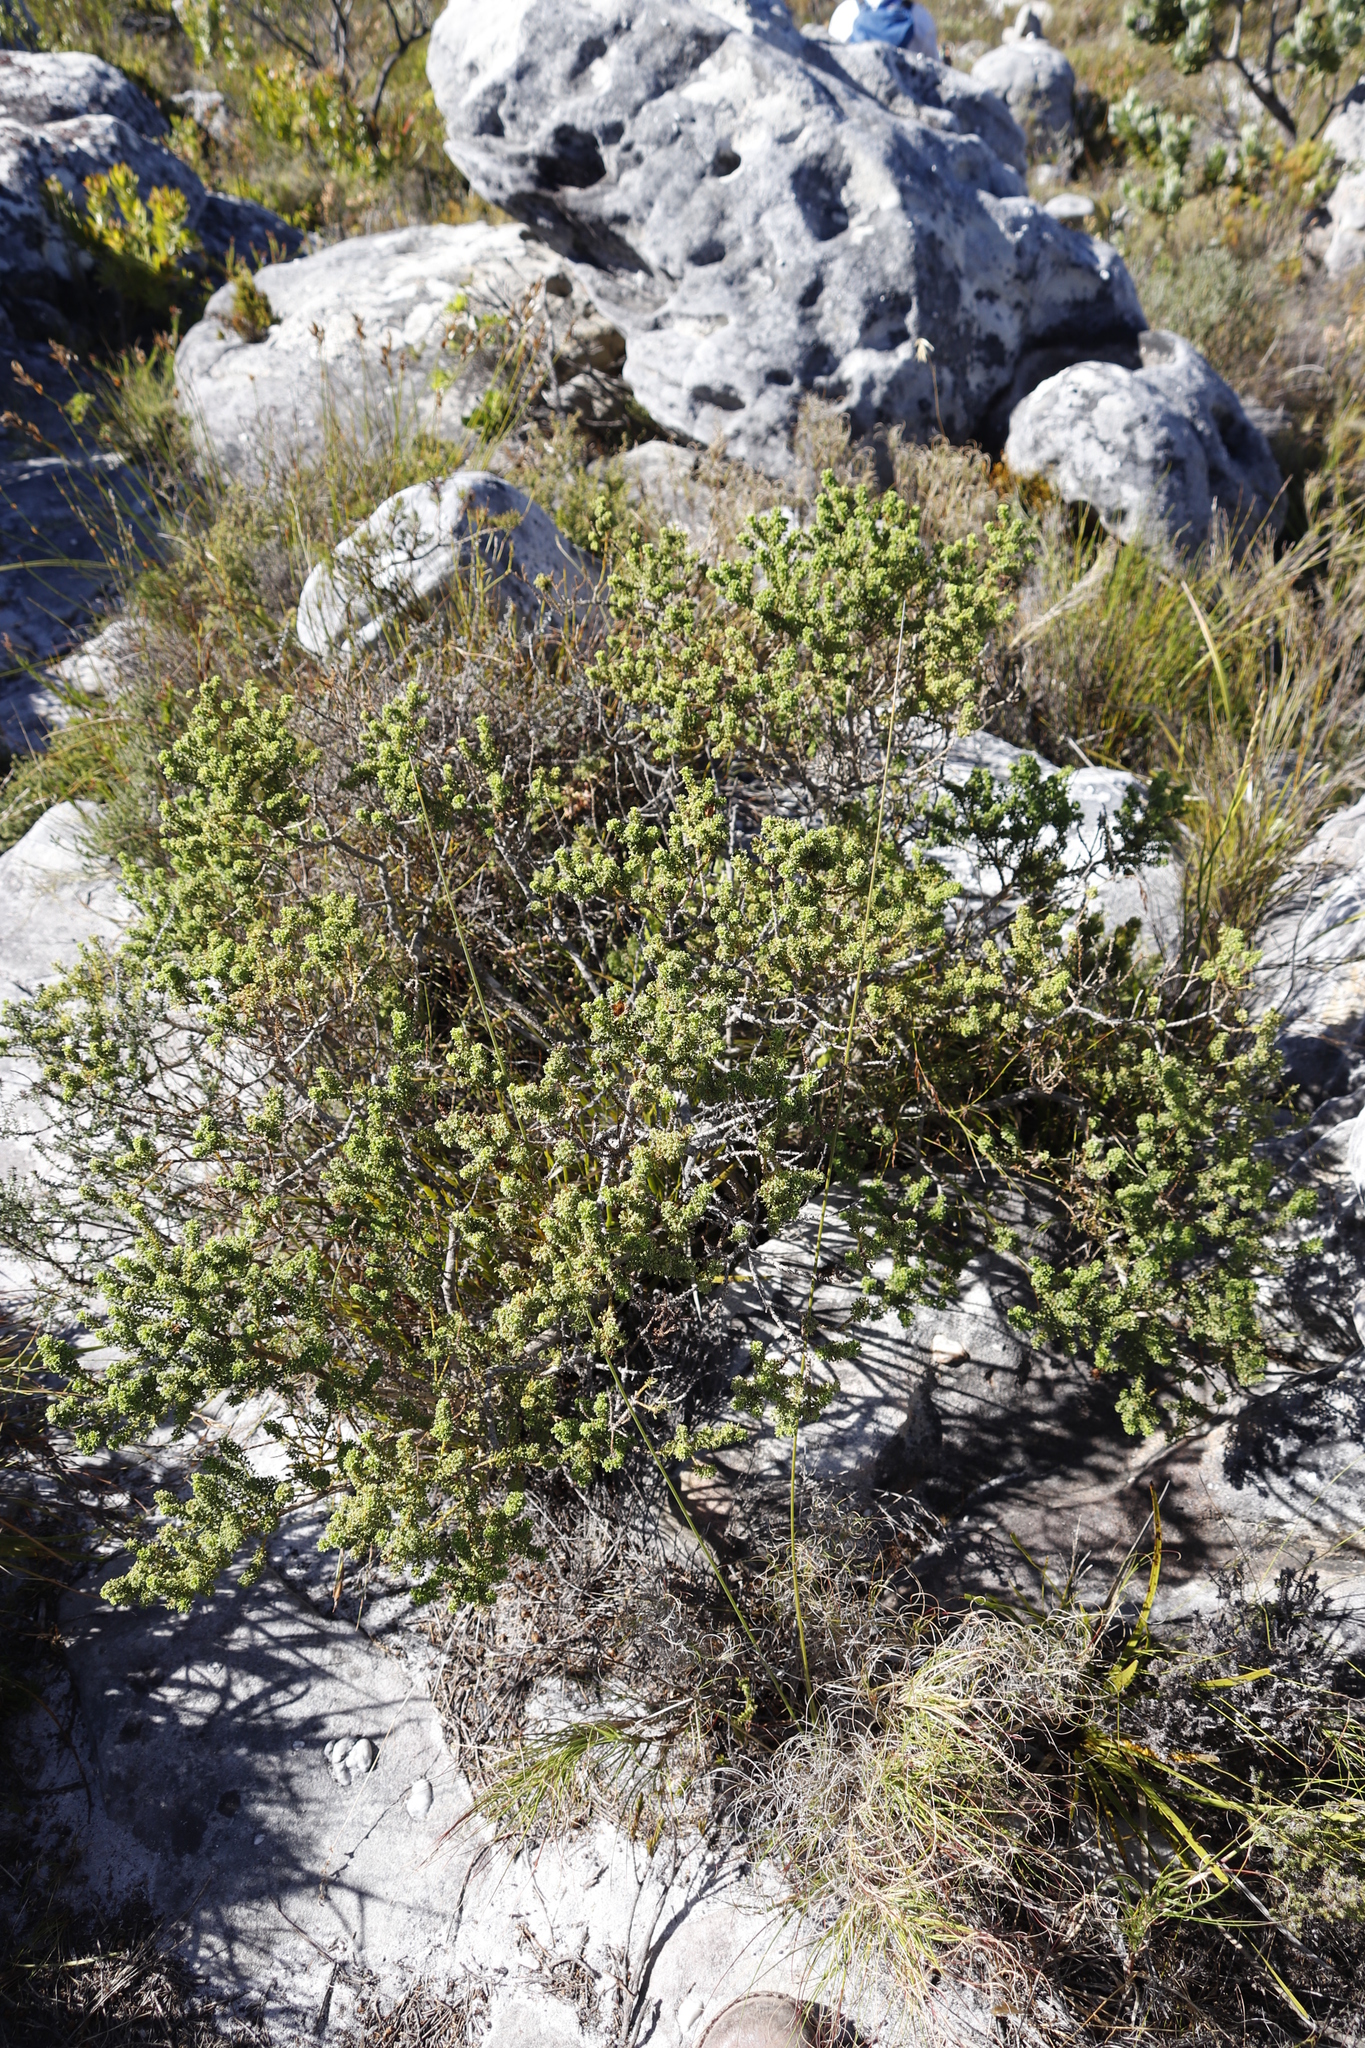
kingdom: Plantae
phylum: Tracheophyta
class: Magnoliopsida
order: Fabales
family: Fabaceae
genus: Psoralea
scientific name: Psoralea aculeata
